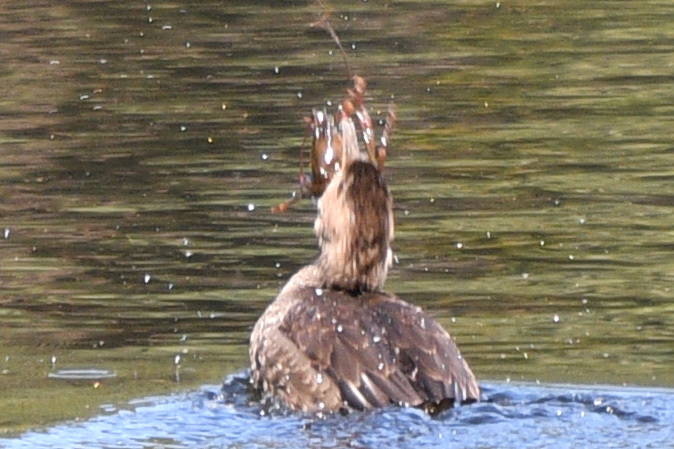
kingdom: Animalia
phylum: Chordata
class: Aves
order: Anseriformes
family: Anatidae
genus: Lophodytes
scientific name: Lophodytes cucullatus
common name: Hooded merganser
